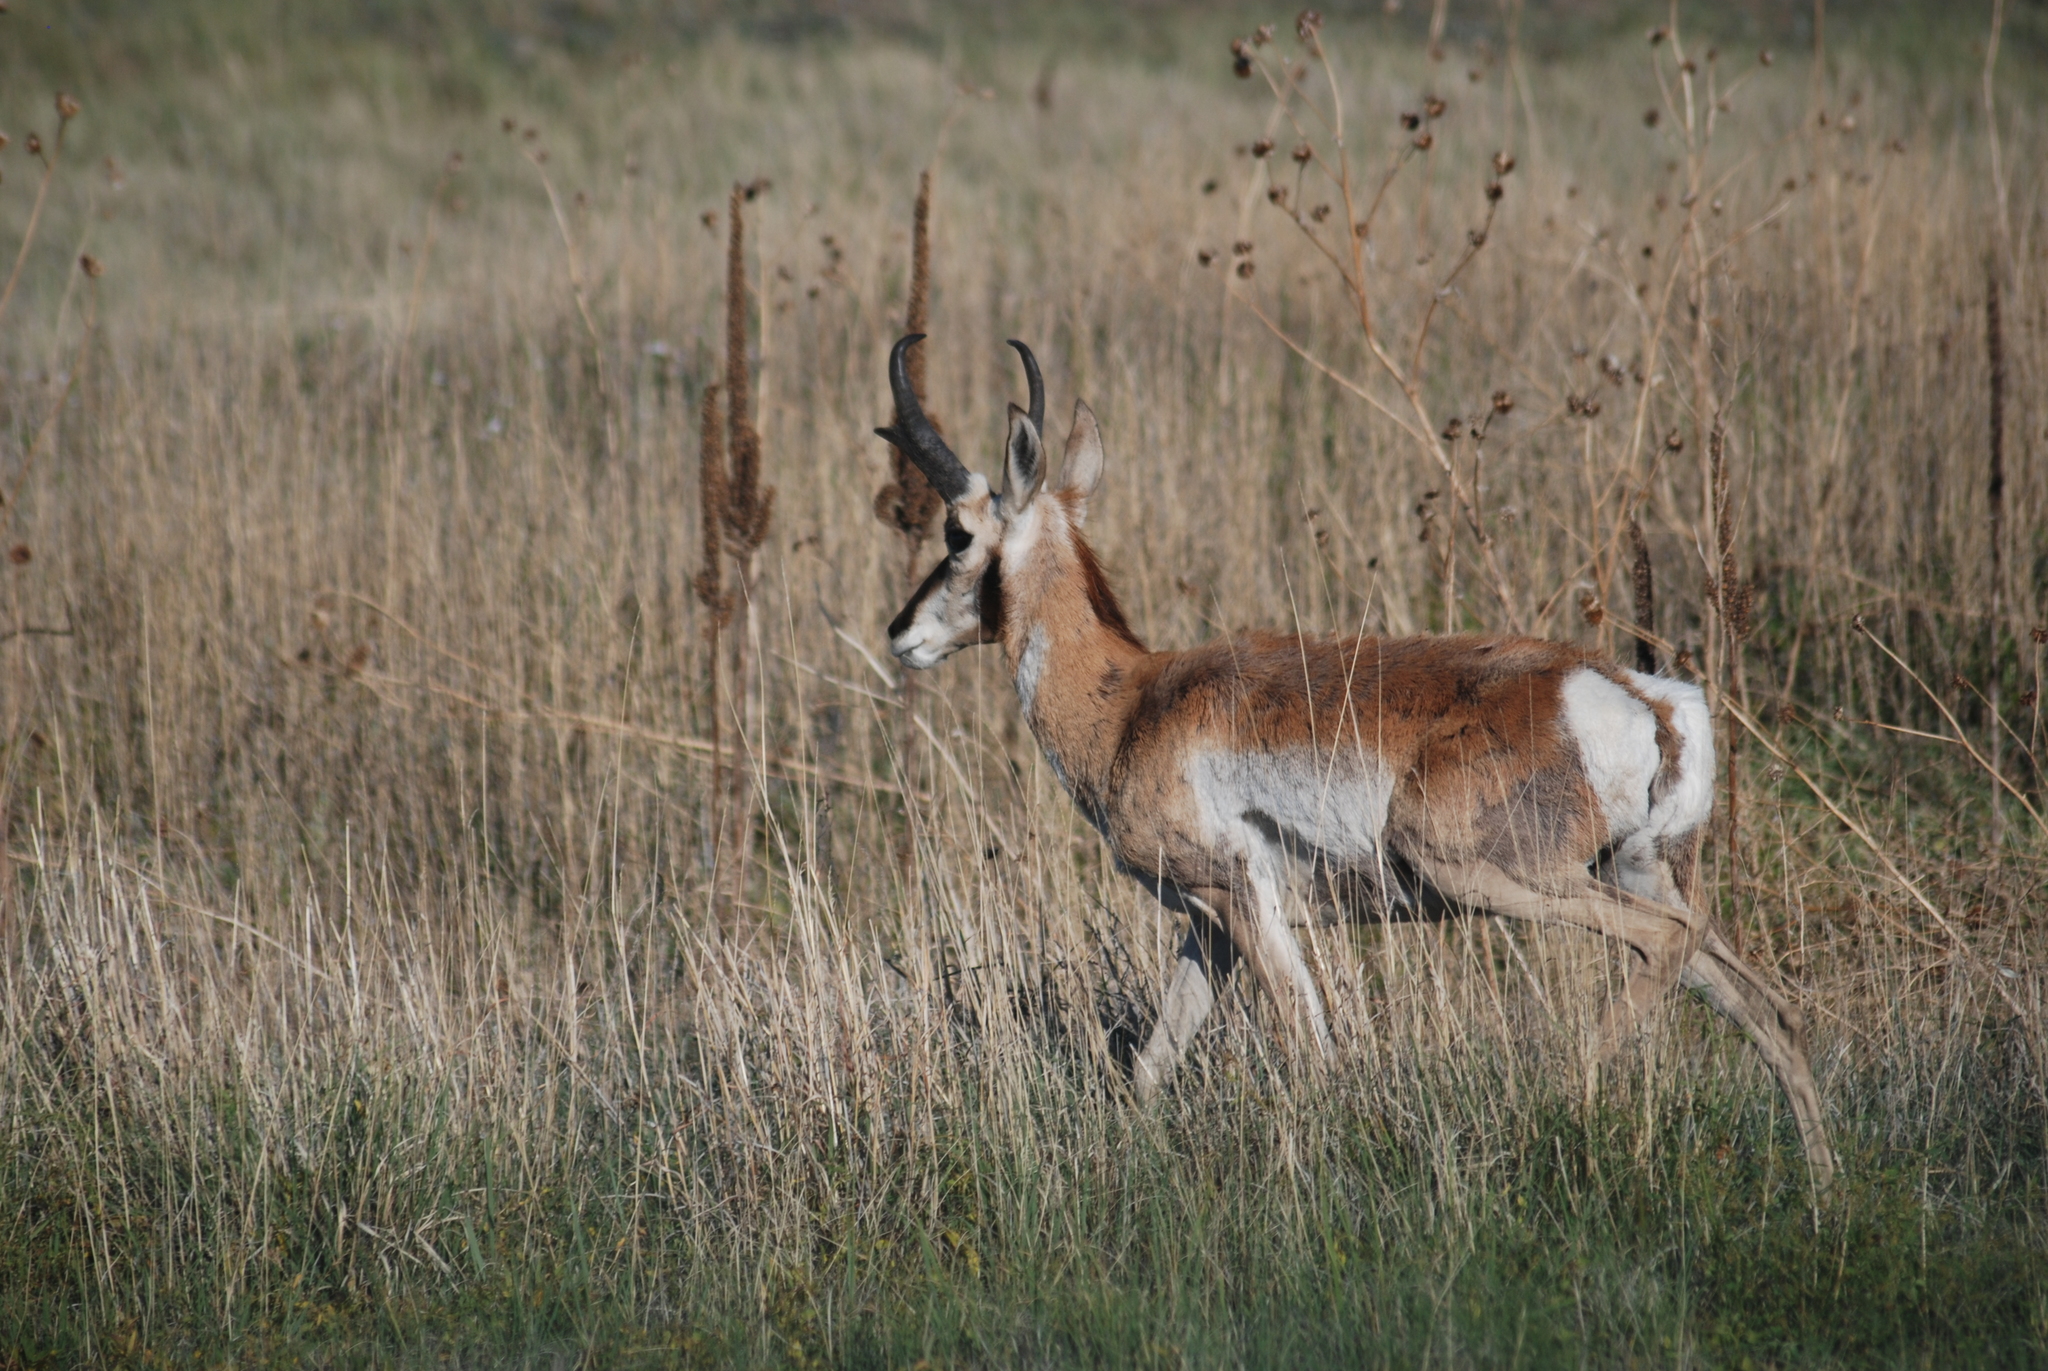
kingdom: Animalia
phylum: Chordata
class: Mammalia
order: Artiodactyla
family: Antilocapridae
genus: Antilocapra
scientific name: Antilocapra americana
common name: Pronghorn
